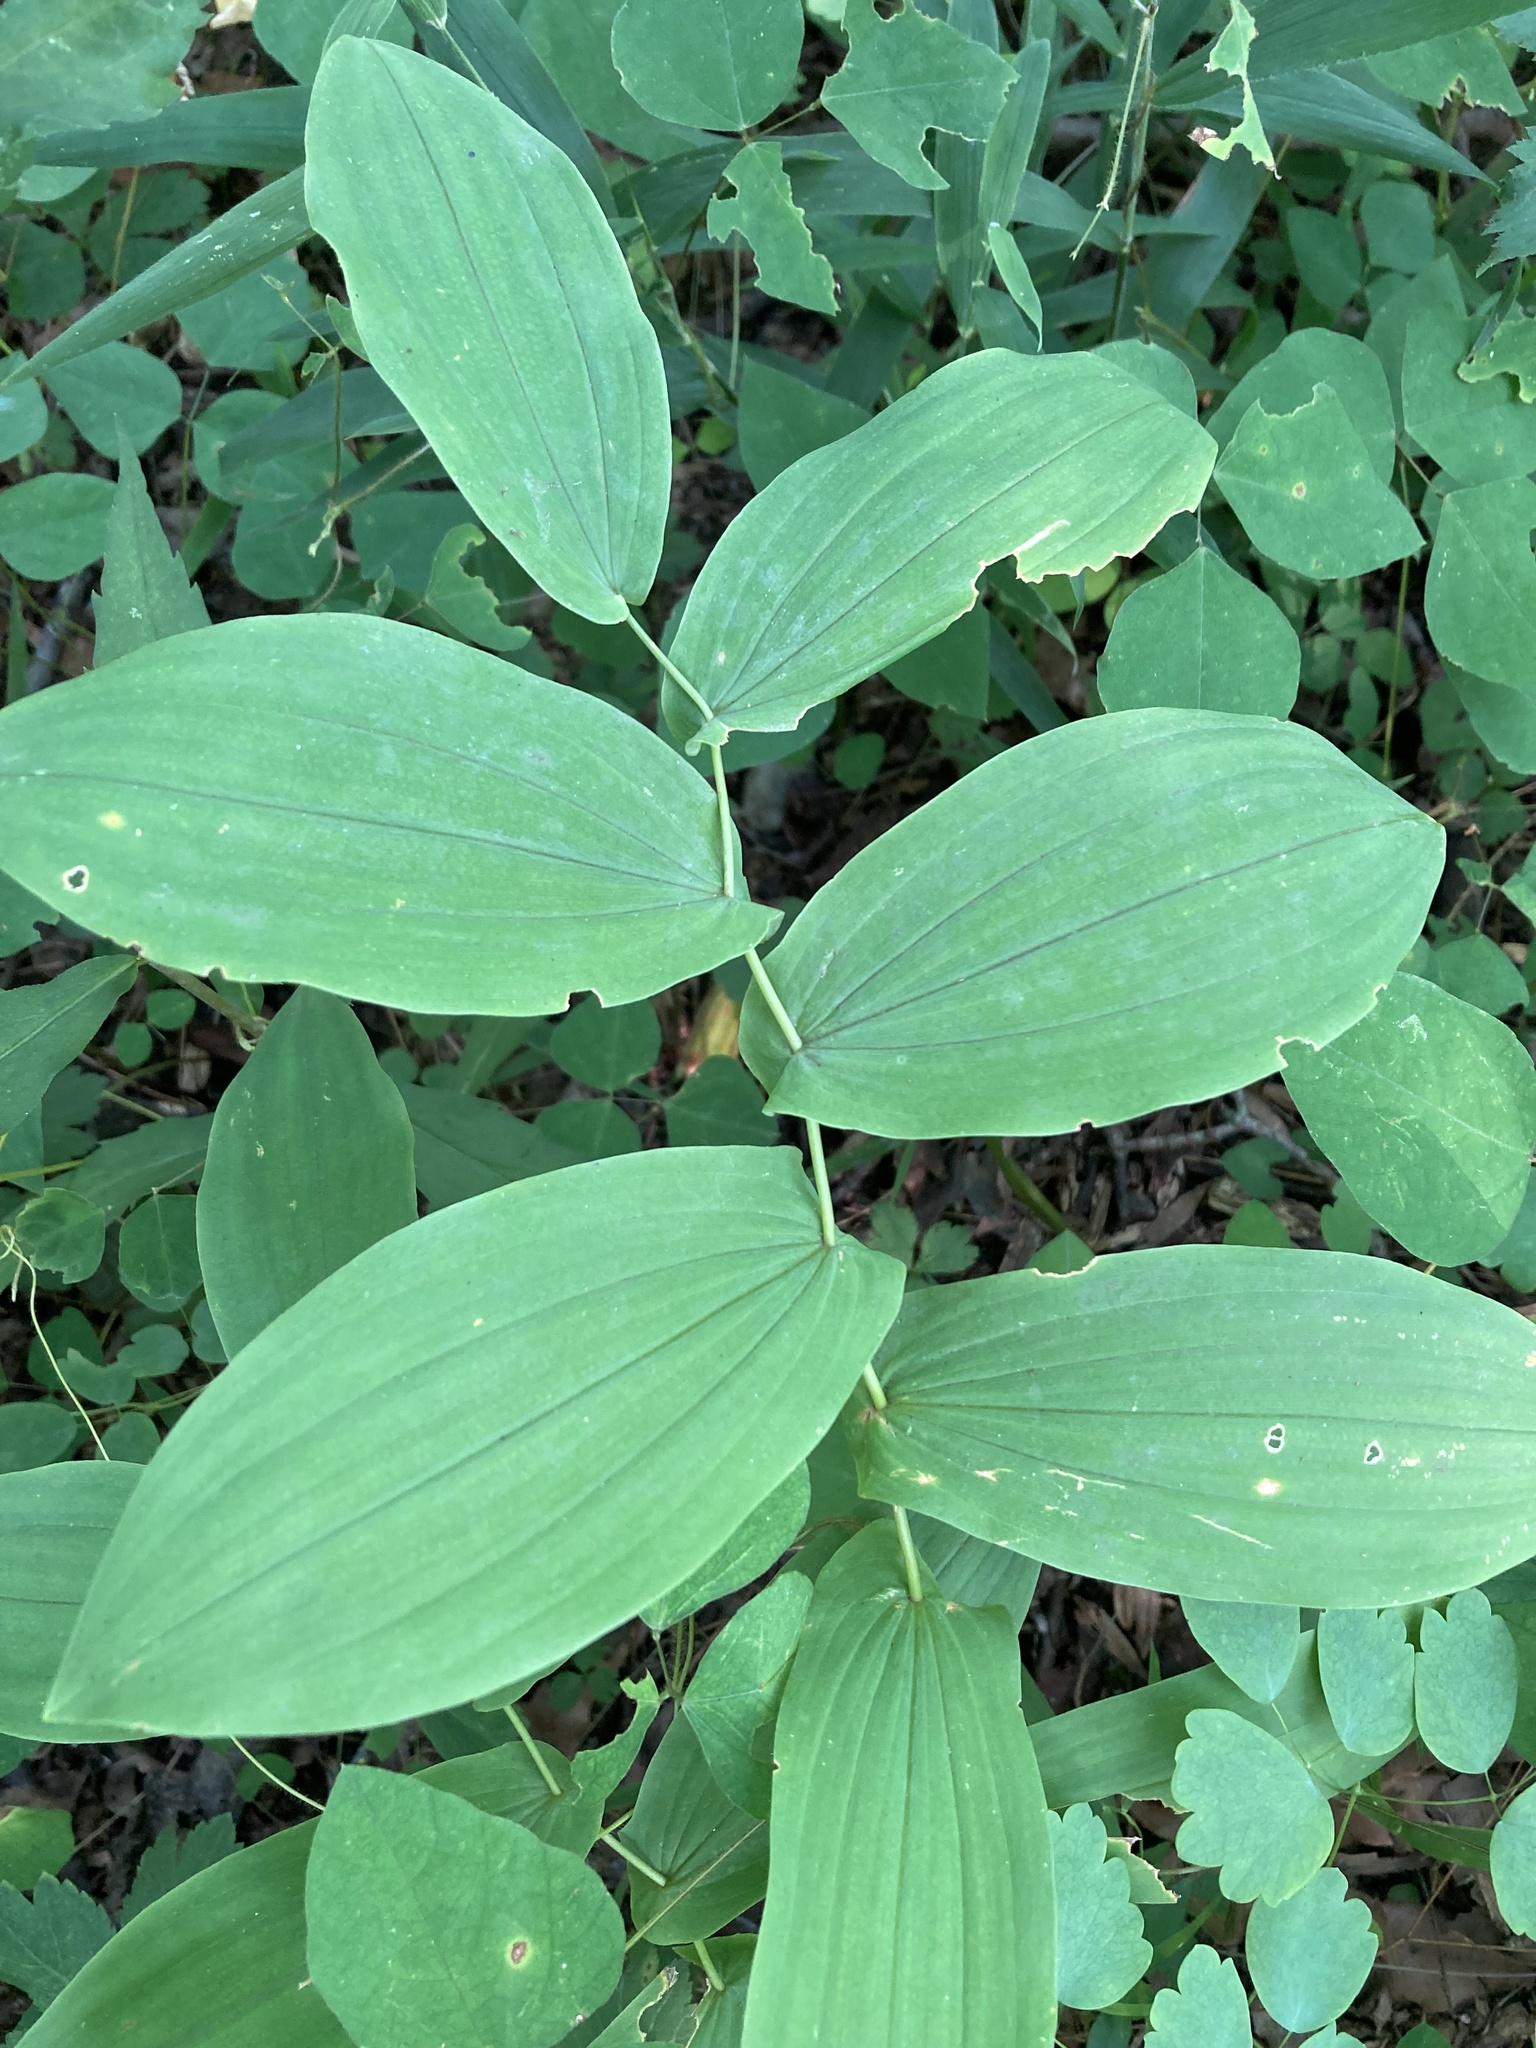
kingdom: Plantae
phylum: Tracheophyta
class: Liliopsida
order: Liliales
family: Colchicaceae
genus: Uvularia
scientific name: Uvularia grandiflora
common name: Bellwort
